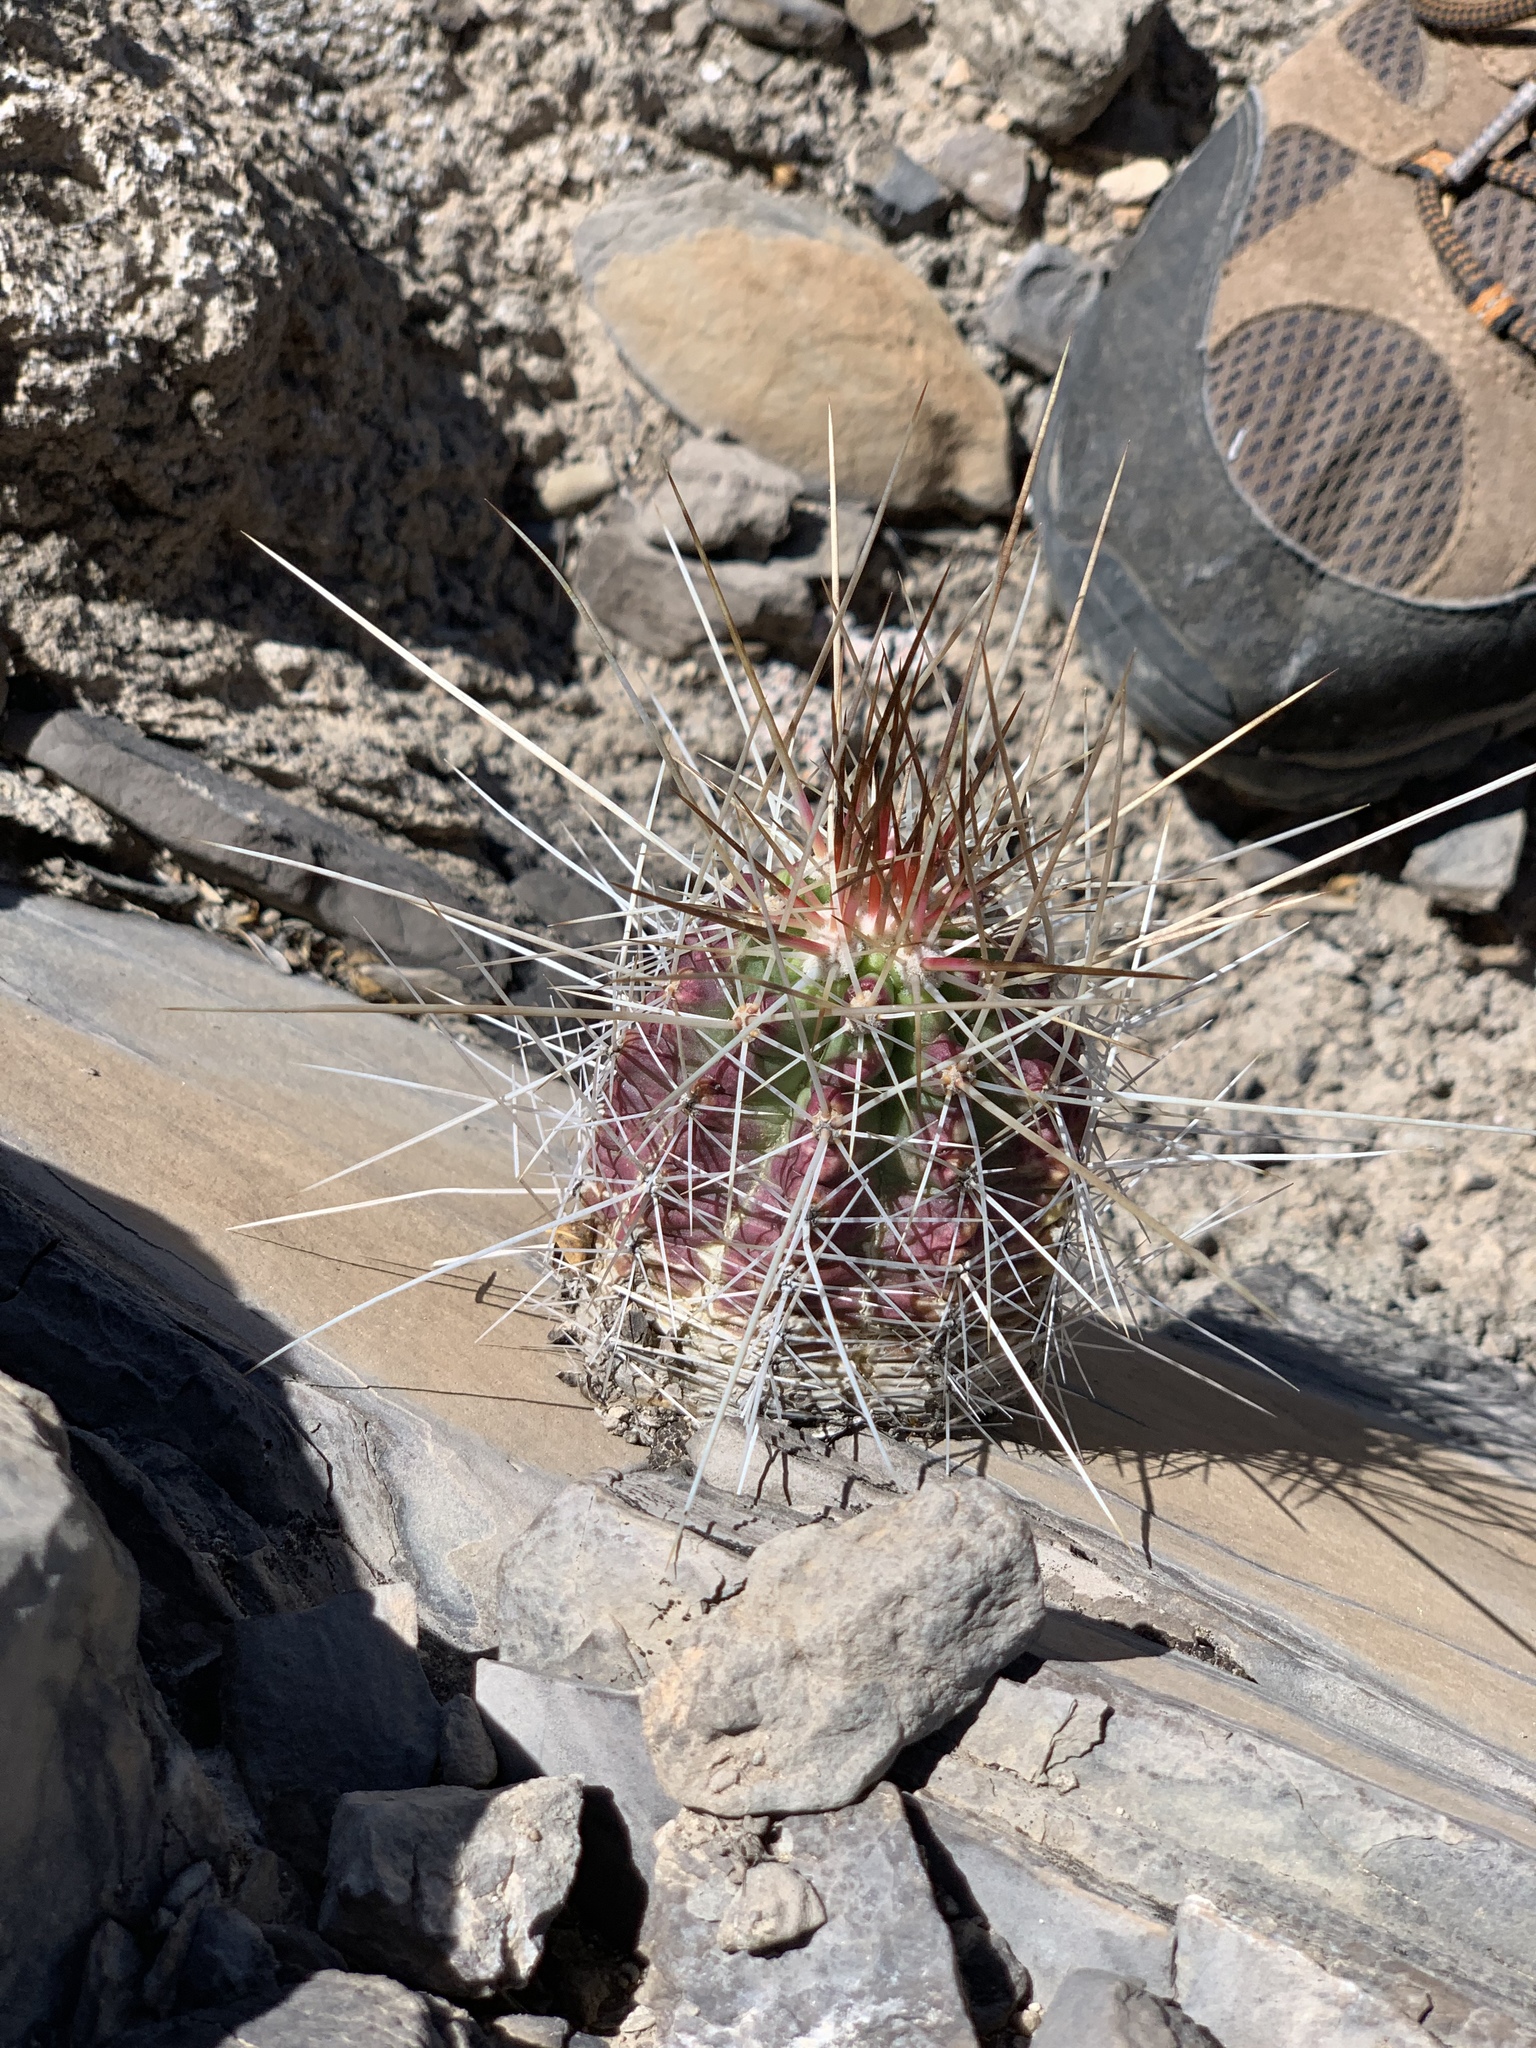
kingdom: Plantae
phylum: Tracheophyta
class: Magnoliopsida
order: Caryophyllales
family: Cactaceae
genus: Echinocereus
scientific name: Echinocereus stramineus
